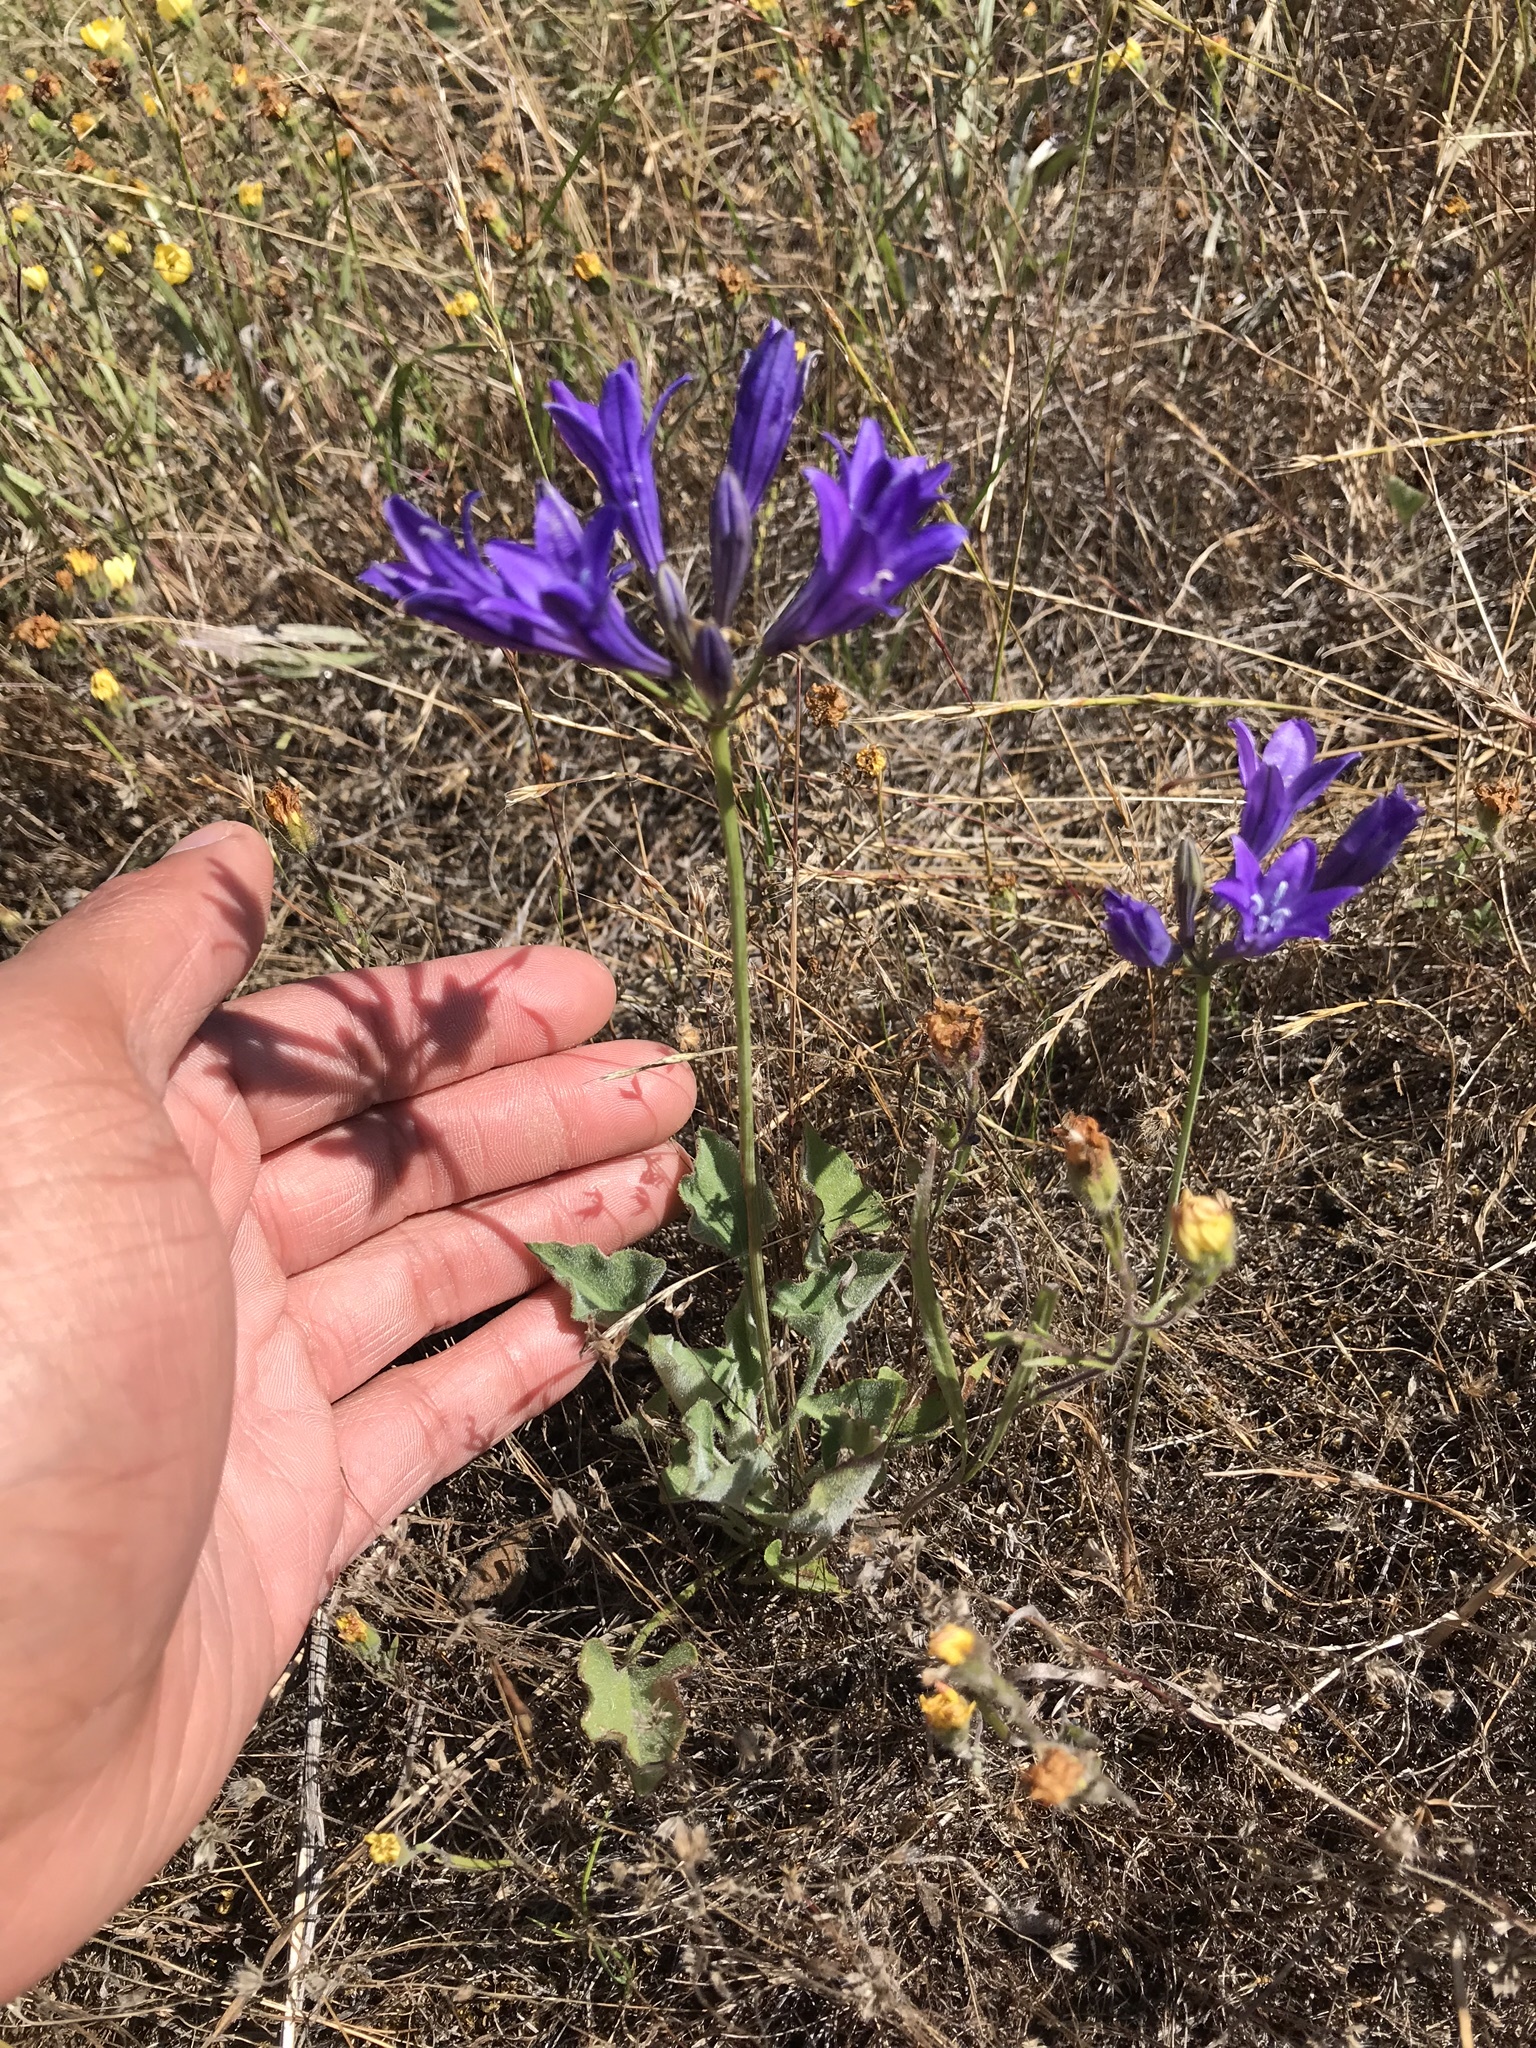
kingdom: Plantae
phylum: Tracheophyta
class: Liliopsida
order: Asparagales
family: Asparagaceae
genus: Triteleia
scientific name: Triteleia laxa
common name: Triplet-lily
